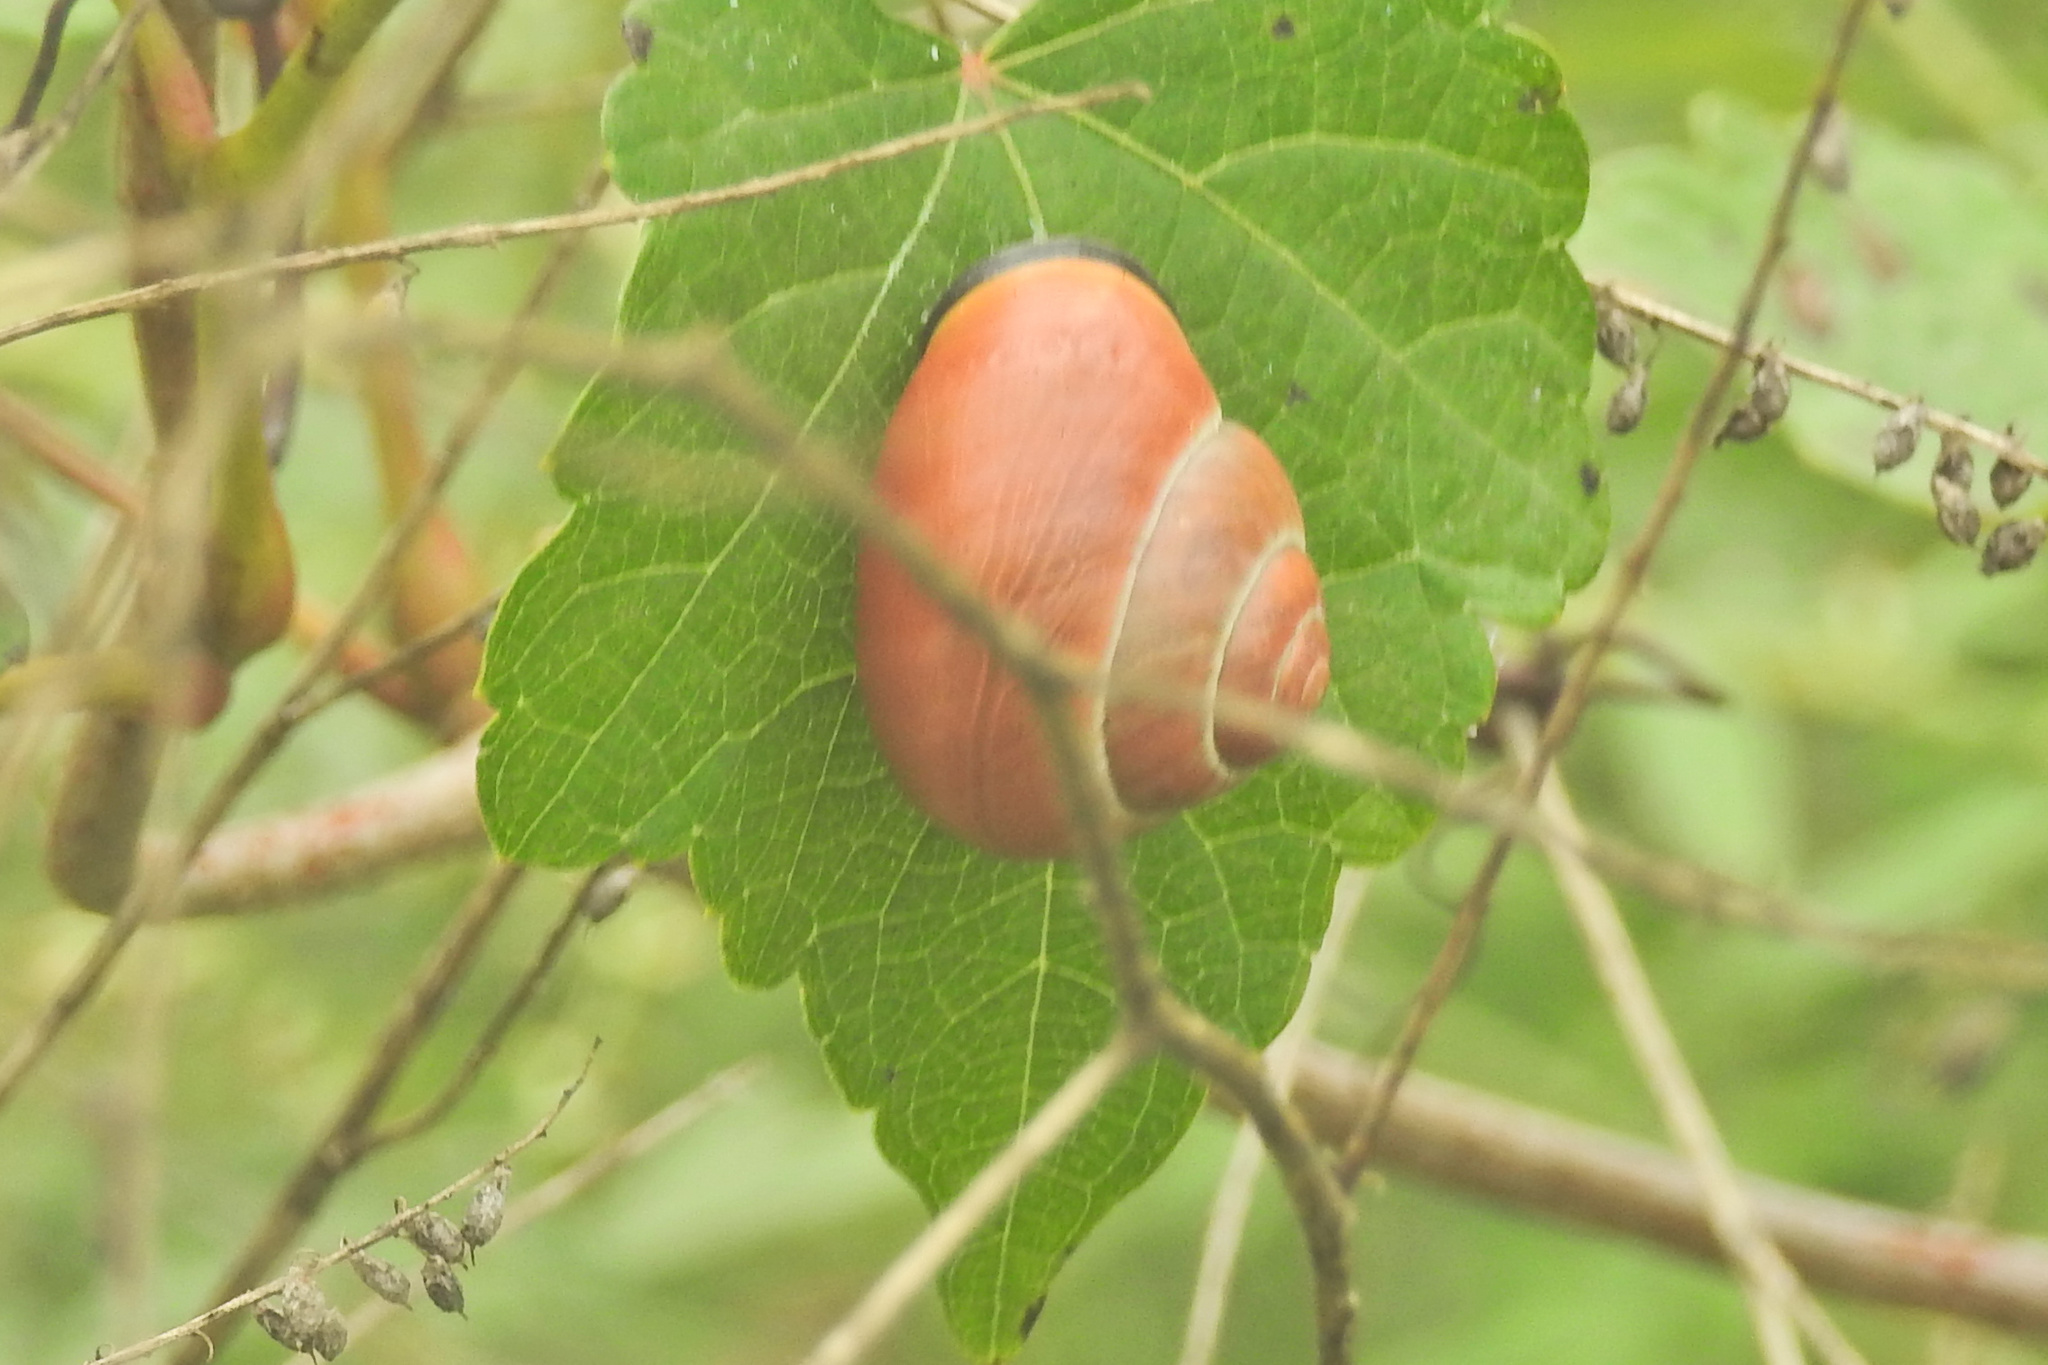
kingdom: Animalia
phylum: Mollusca
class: Gastropoda
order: Stylommatophora
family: Helicidae
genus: Cepaea
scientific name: Cepaea nemoralis
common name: Grovesnail
